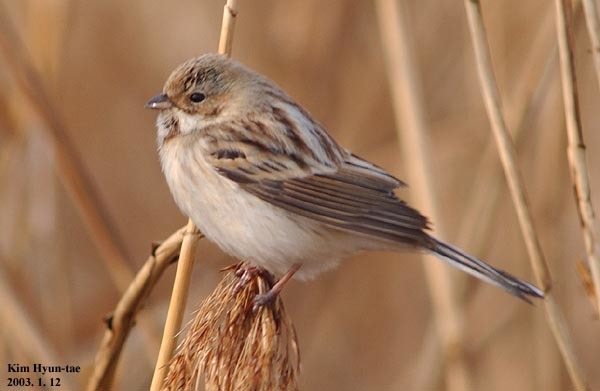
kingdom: Animalia
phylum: Chordata
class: Aves
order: Passeriformes
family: Emberizidae
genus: Emberiza
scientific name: Emberiza pallasi
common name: Pallas's reed bunting
